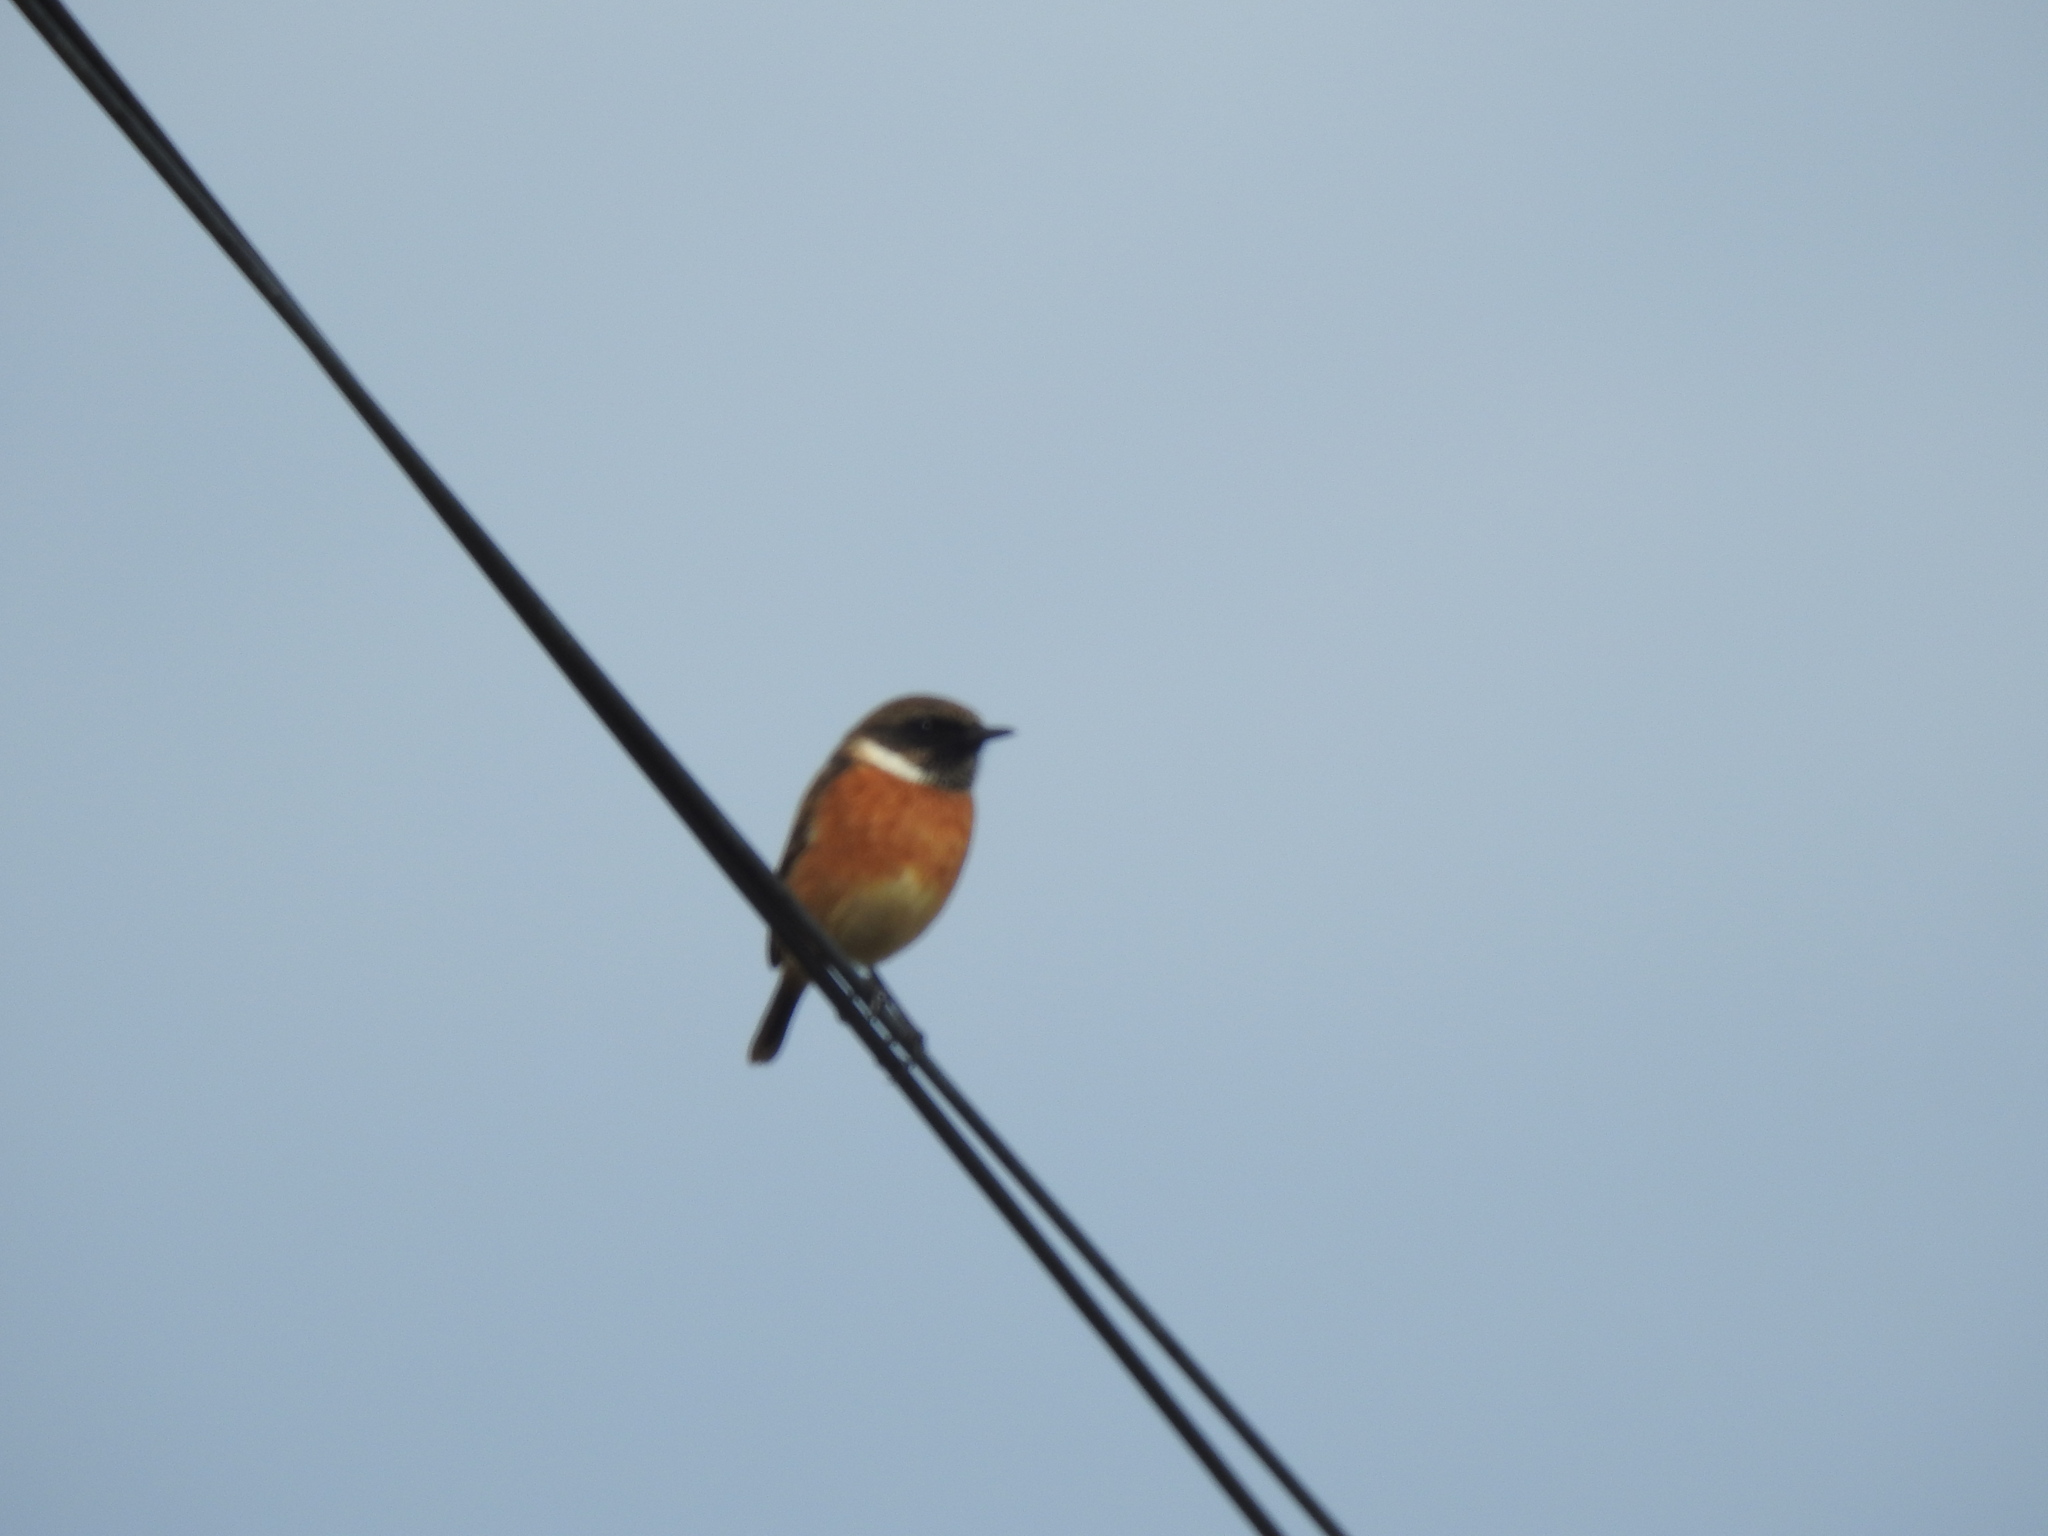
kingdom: Animalia
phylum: Chordata
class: Aves
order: Passeriformes
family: Muscicapidae
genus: Saxicola
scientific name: Saxicola rubicola
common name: European stonechat
